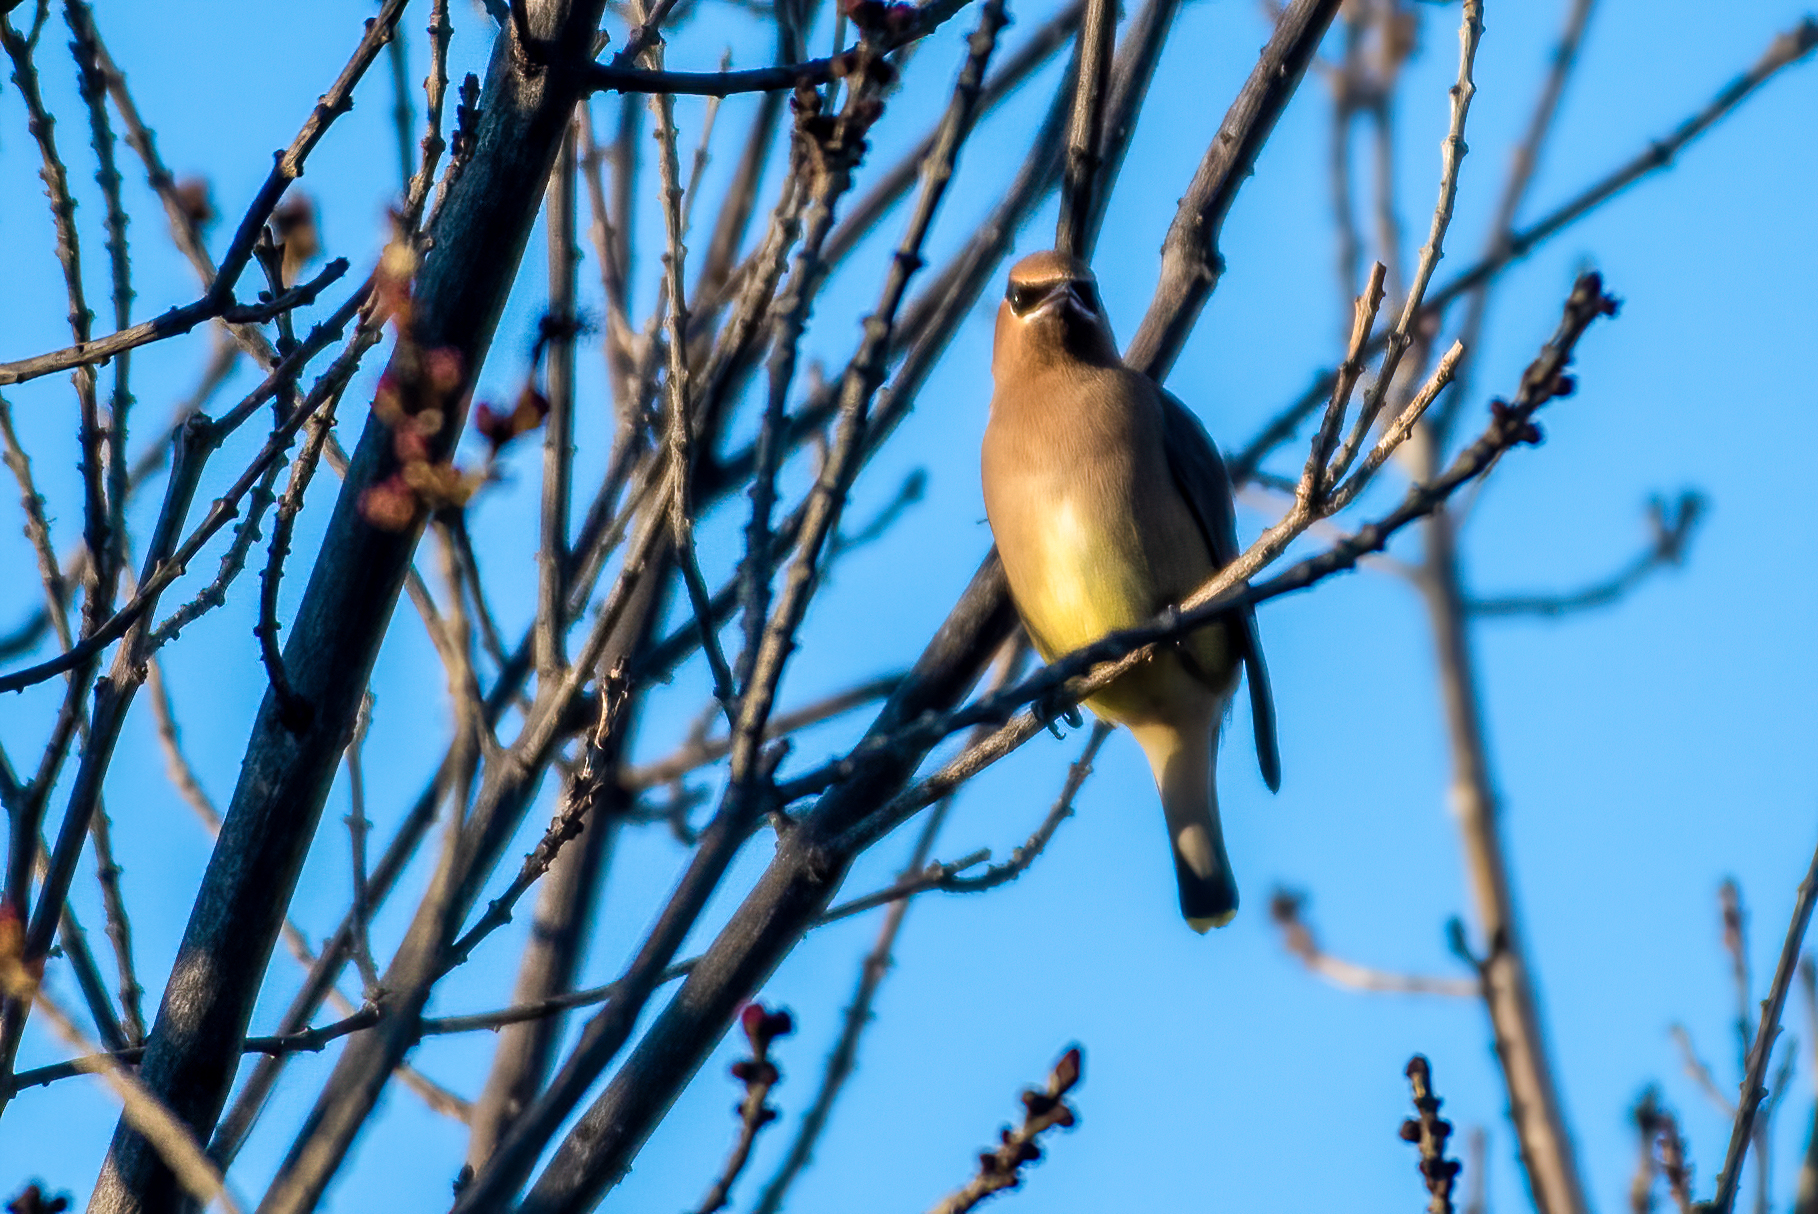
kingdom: Animalia
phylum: Chordata
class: Aves
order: Passeriformes
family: Bombycillidae
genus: Bombycilla
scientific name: Bombycilla cedrorum
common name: Cedar waxwing
